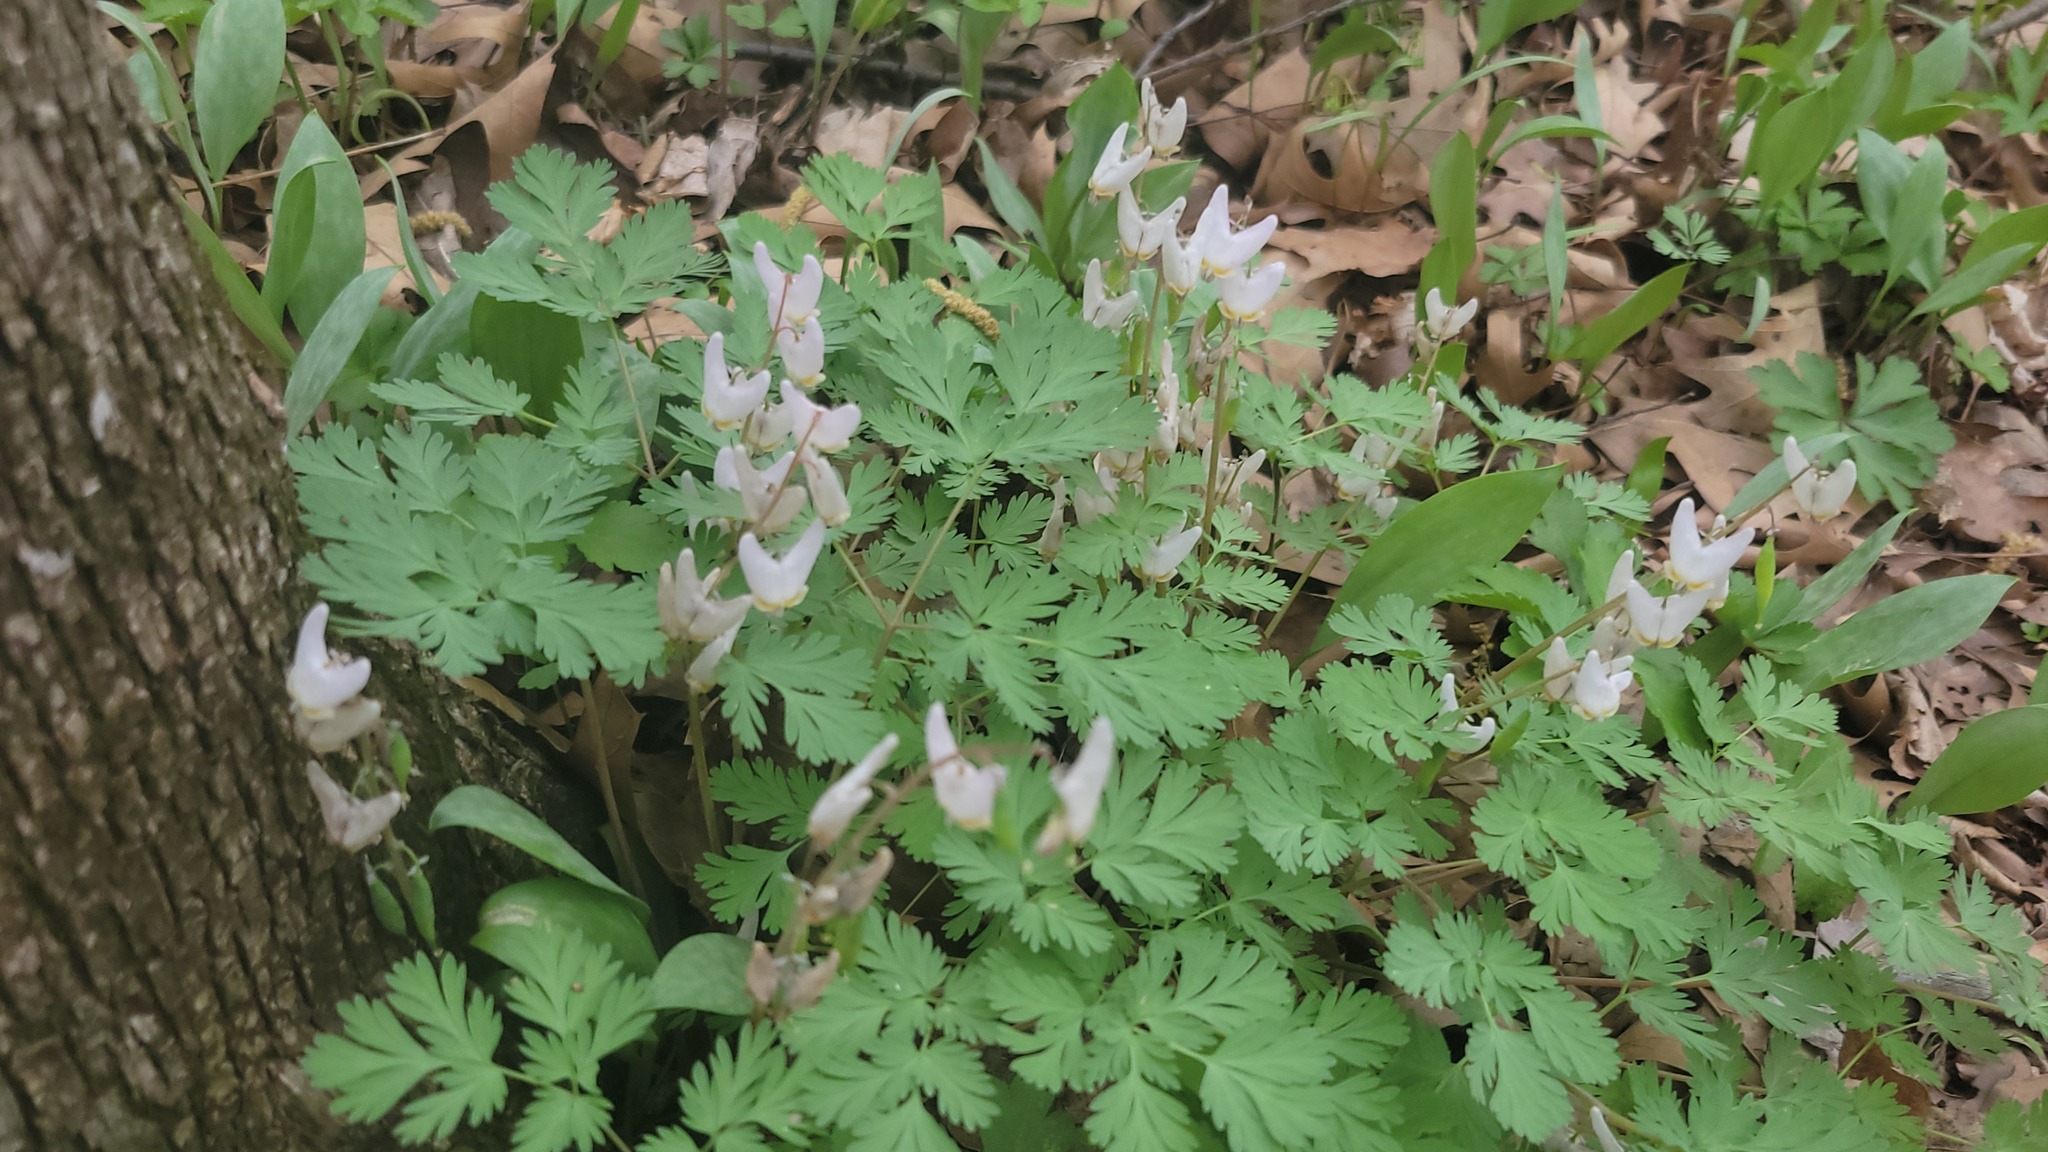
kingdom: Plantae
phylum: Tracheophyta
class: Magnoliopsida
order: Ranunculales
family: Papaveraceae
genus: Dicentra
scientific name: Dicentra cucullaria
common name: Dutchman's breeches
